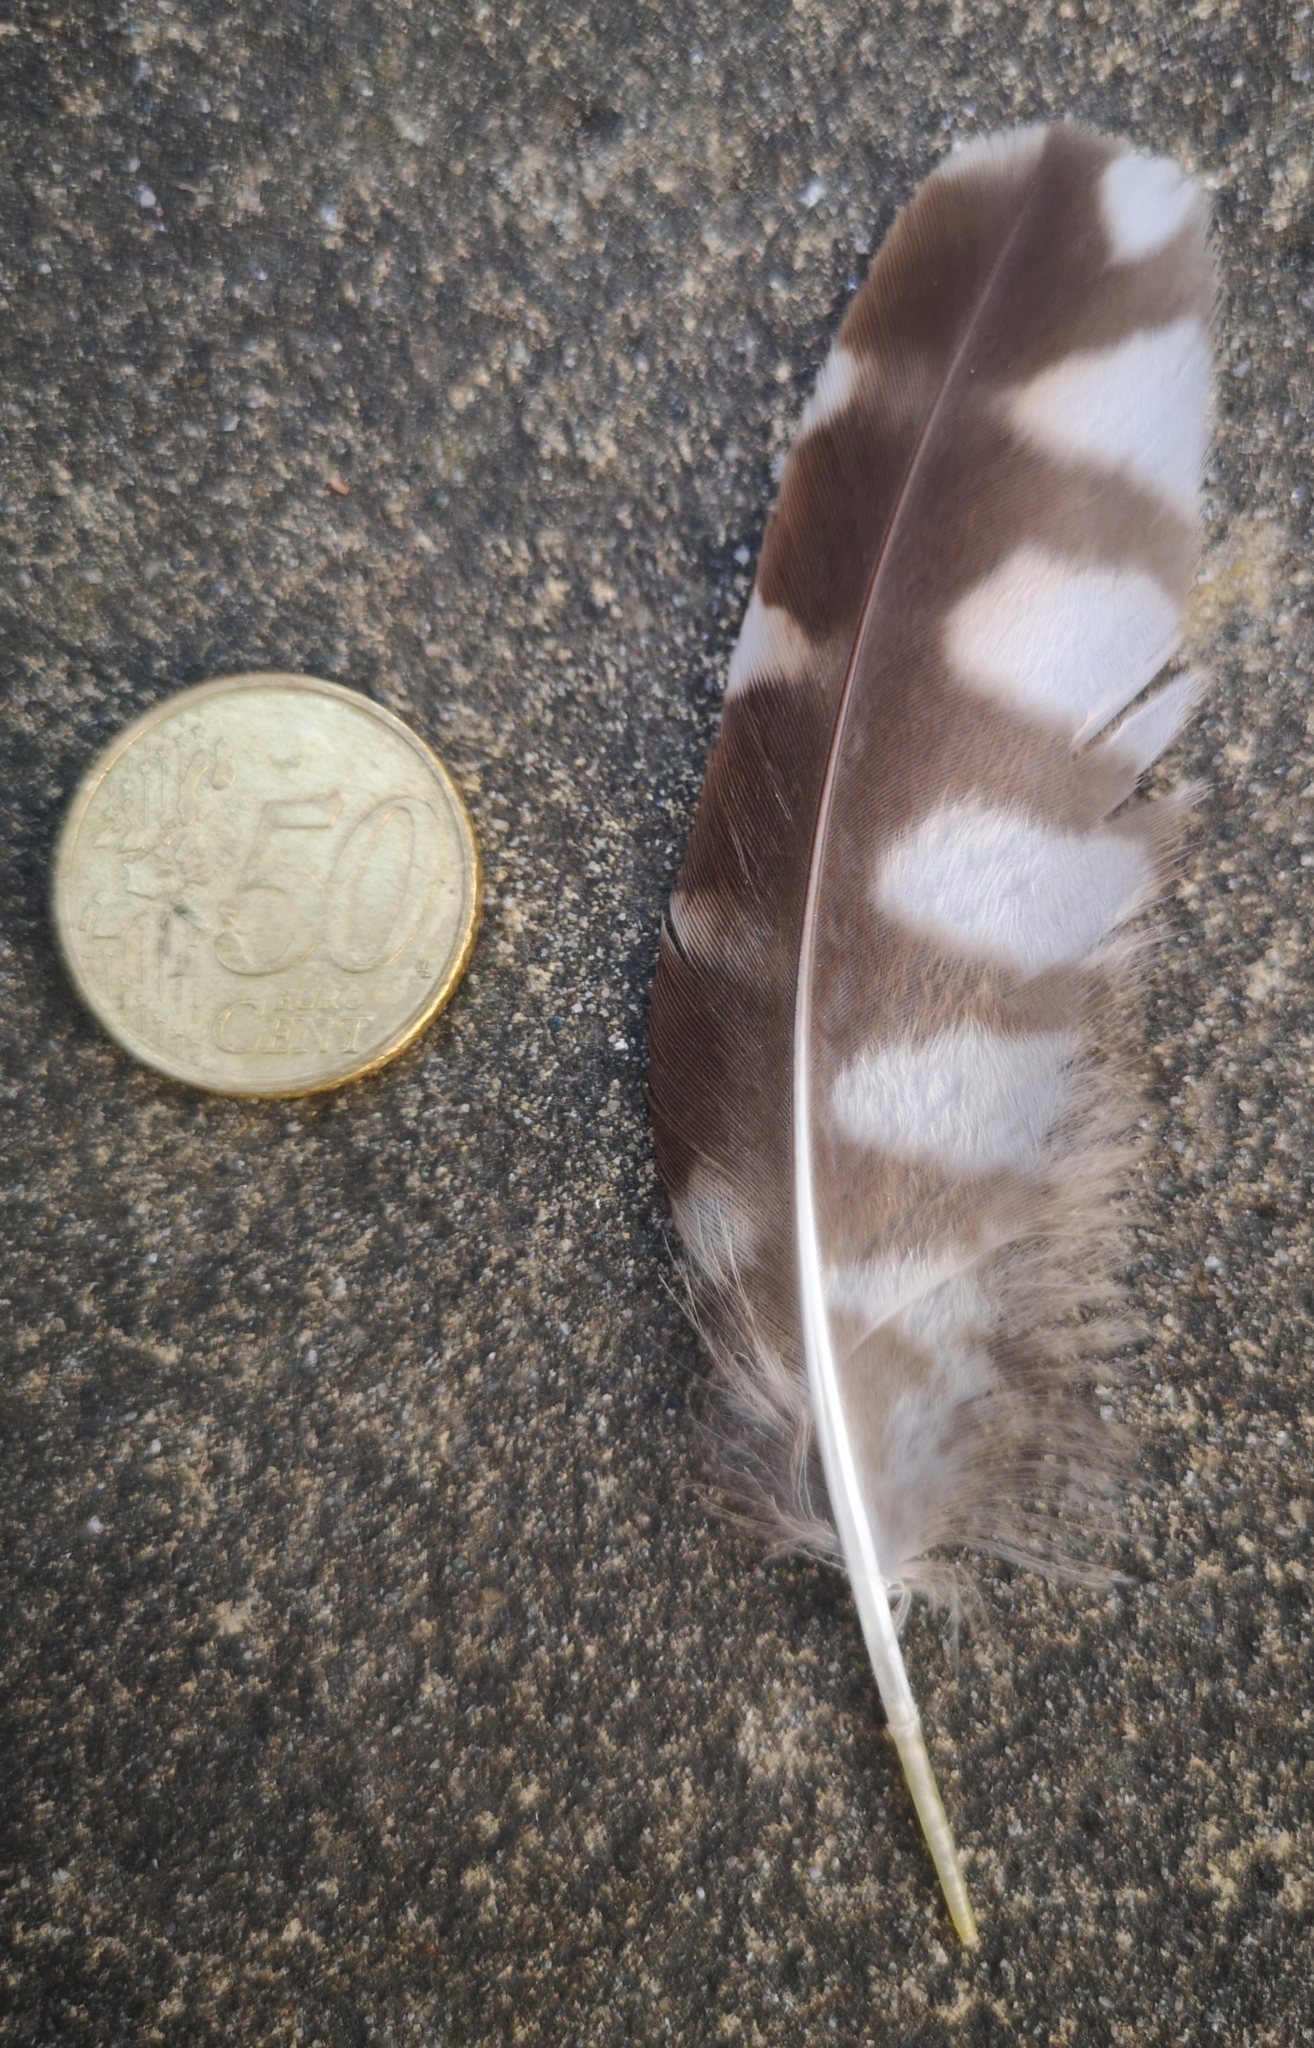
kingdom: Animalia
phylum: Chordata
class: Aves
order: Strigiformes
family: Strigidae
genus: Athene
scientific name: Athene noctua
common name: Little owl
